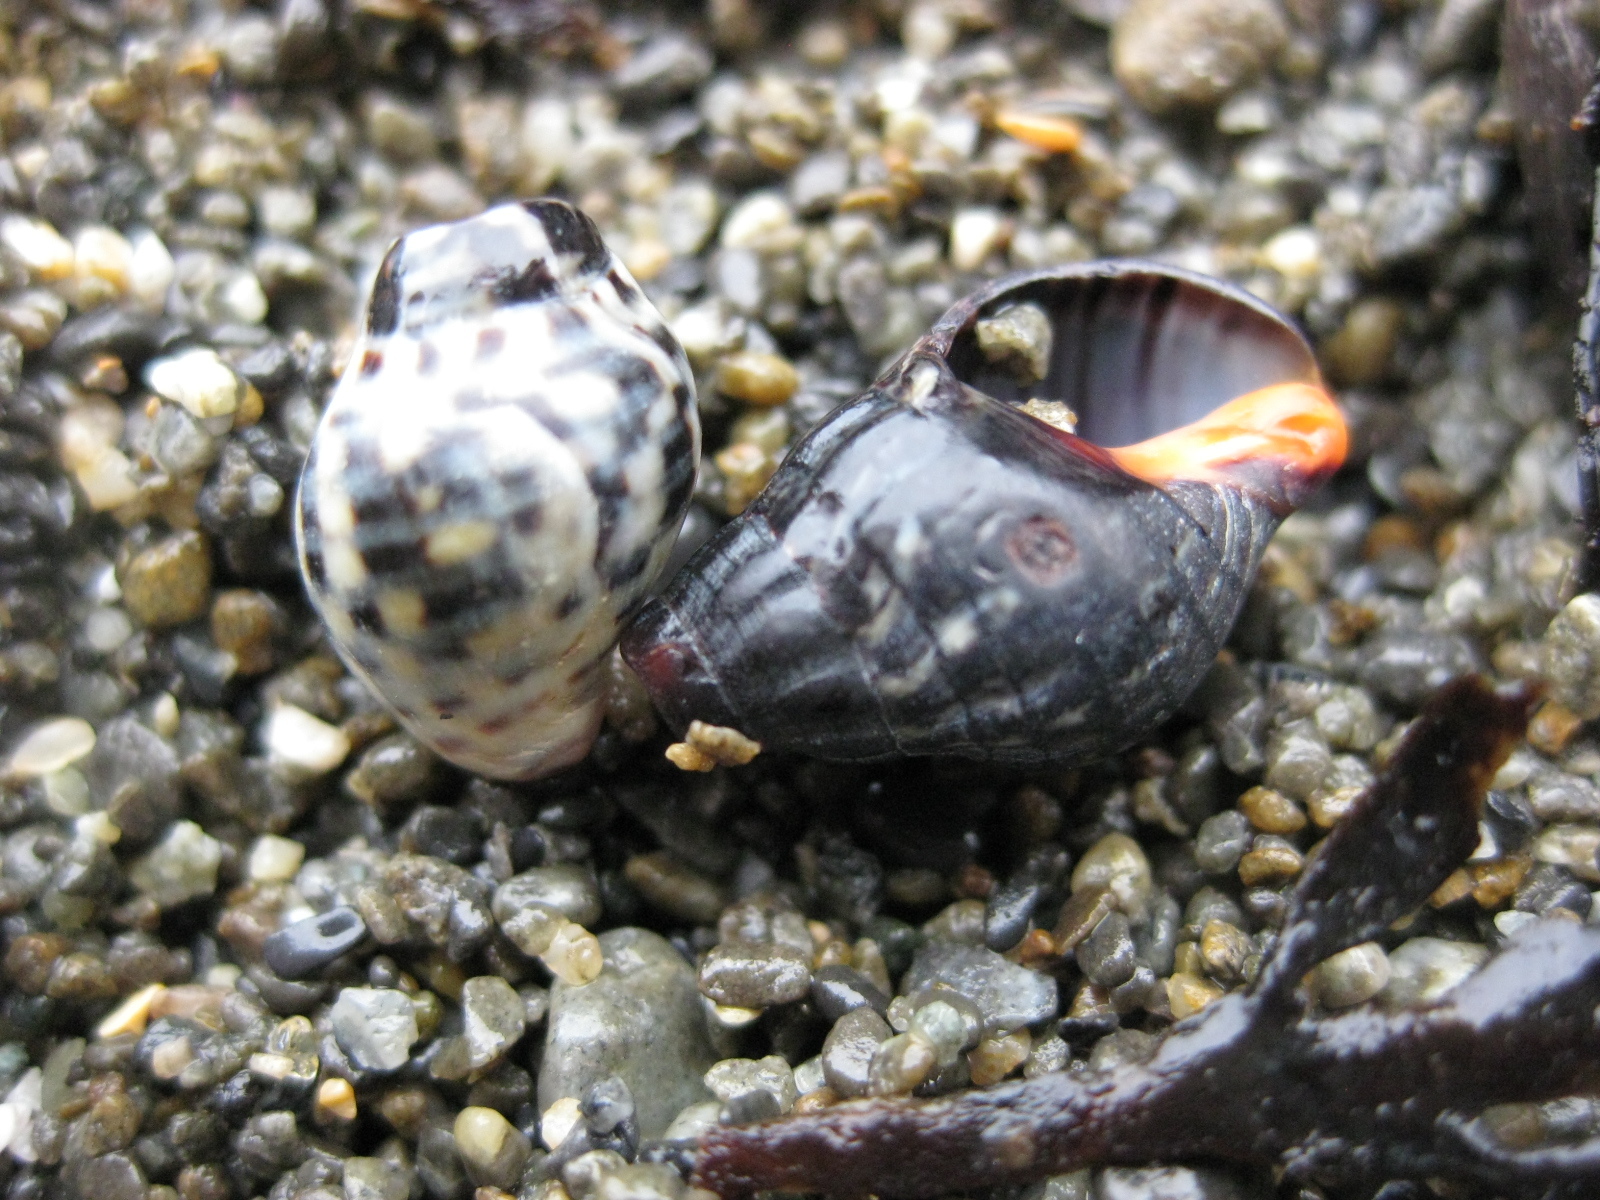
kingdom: Animalia
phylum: Mollusca
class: Gastropoda
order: Neogastropoda
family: Cominellidae
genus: Cominella
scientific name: Cominella maculosa
